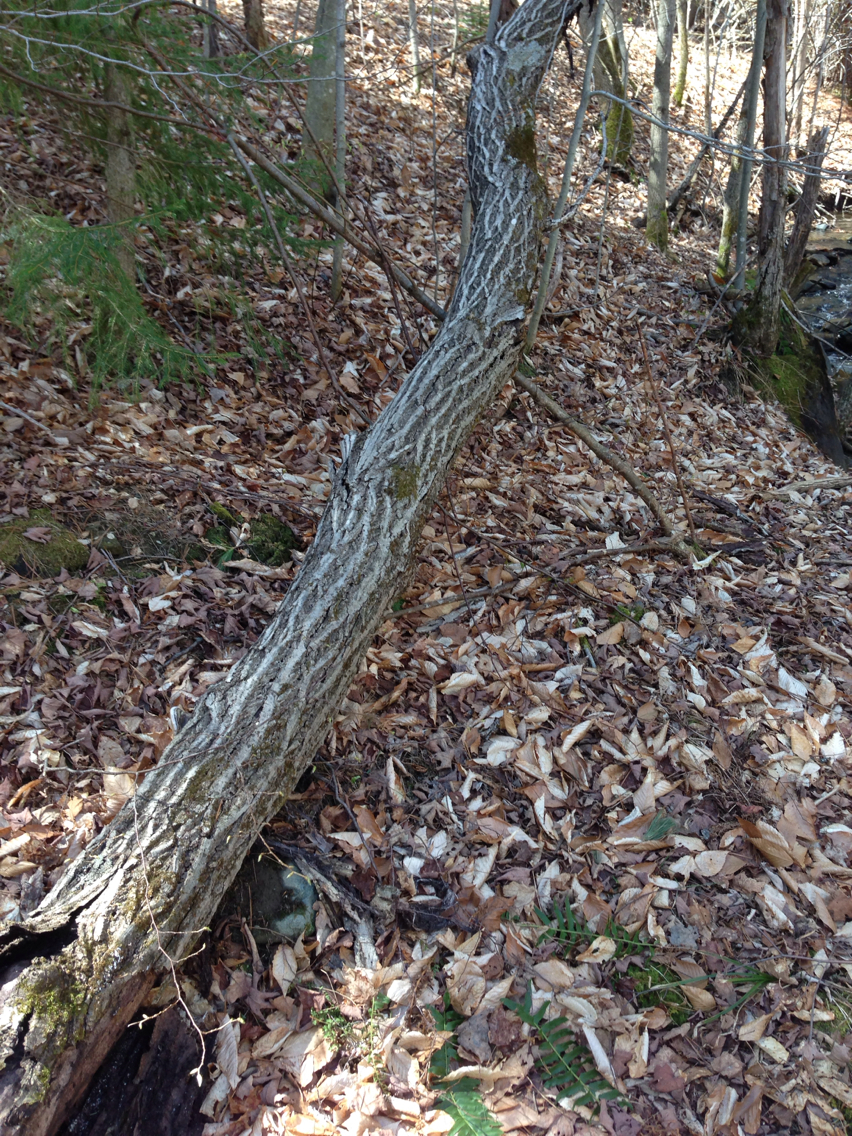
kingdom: Plantae
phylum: Tracheophyta
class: Magnoliopsida
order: Fagales
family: Juglandaceae
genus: Juglans
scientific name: Juglans cinerea
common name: Butternut
